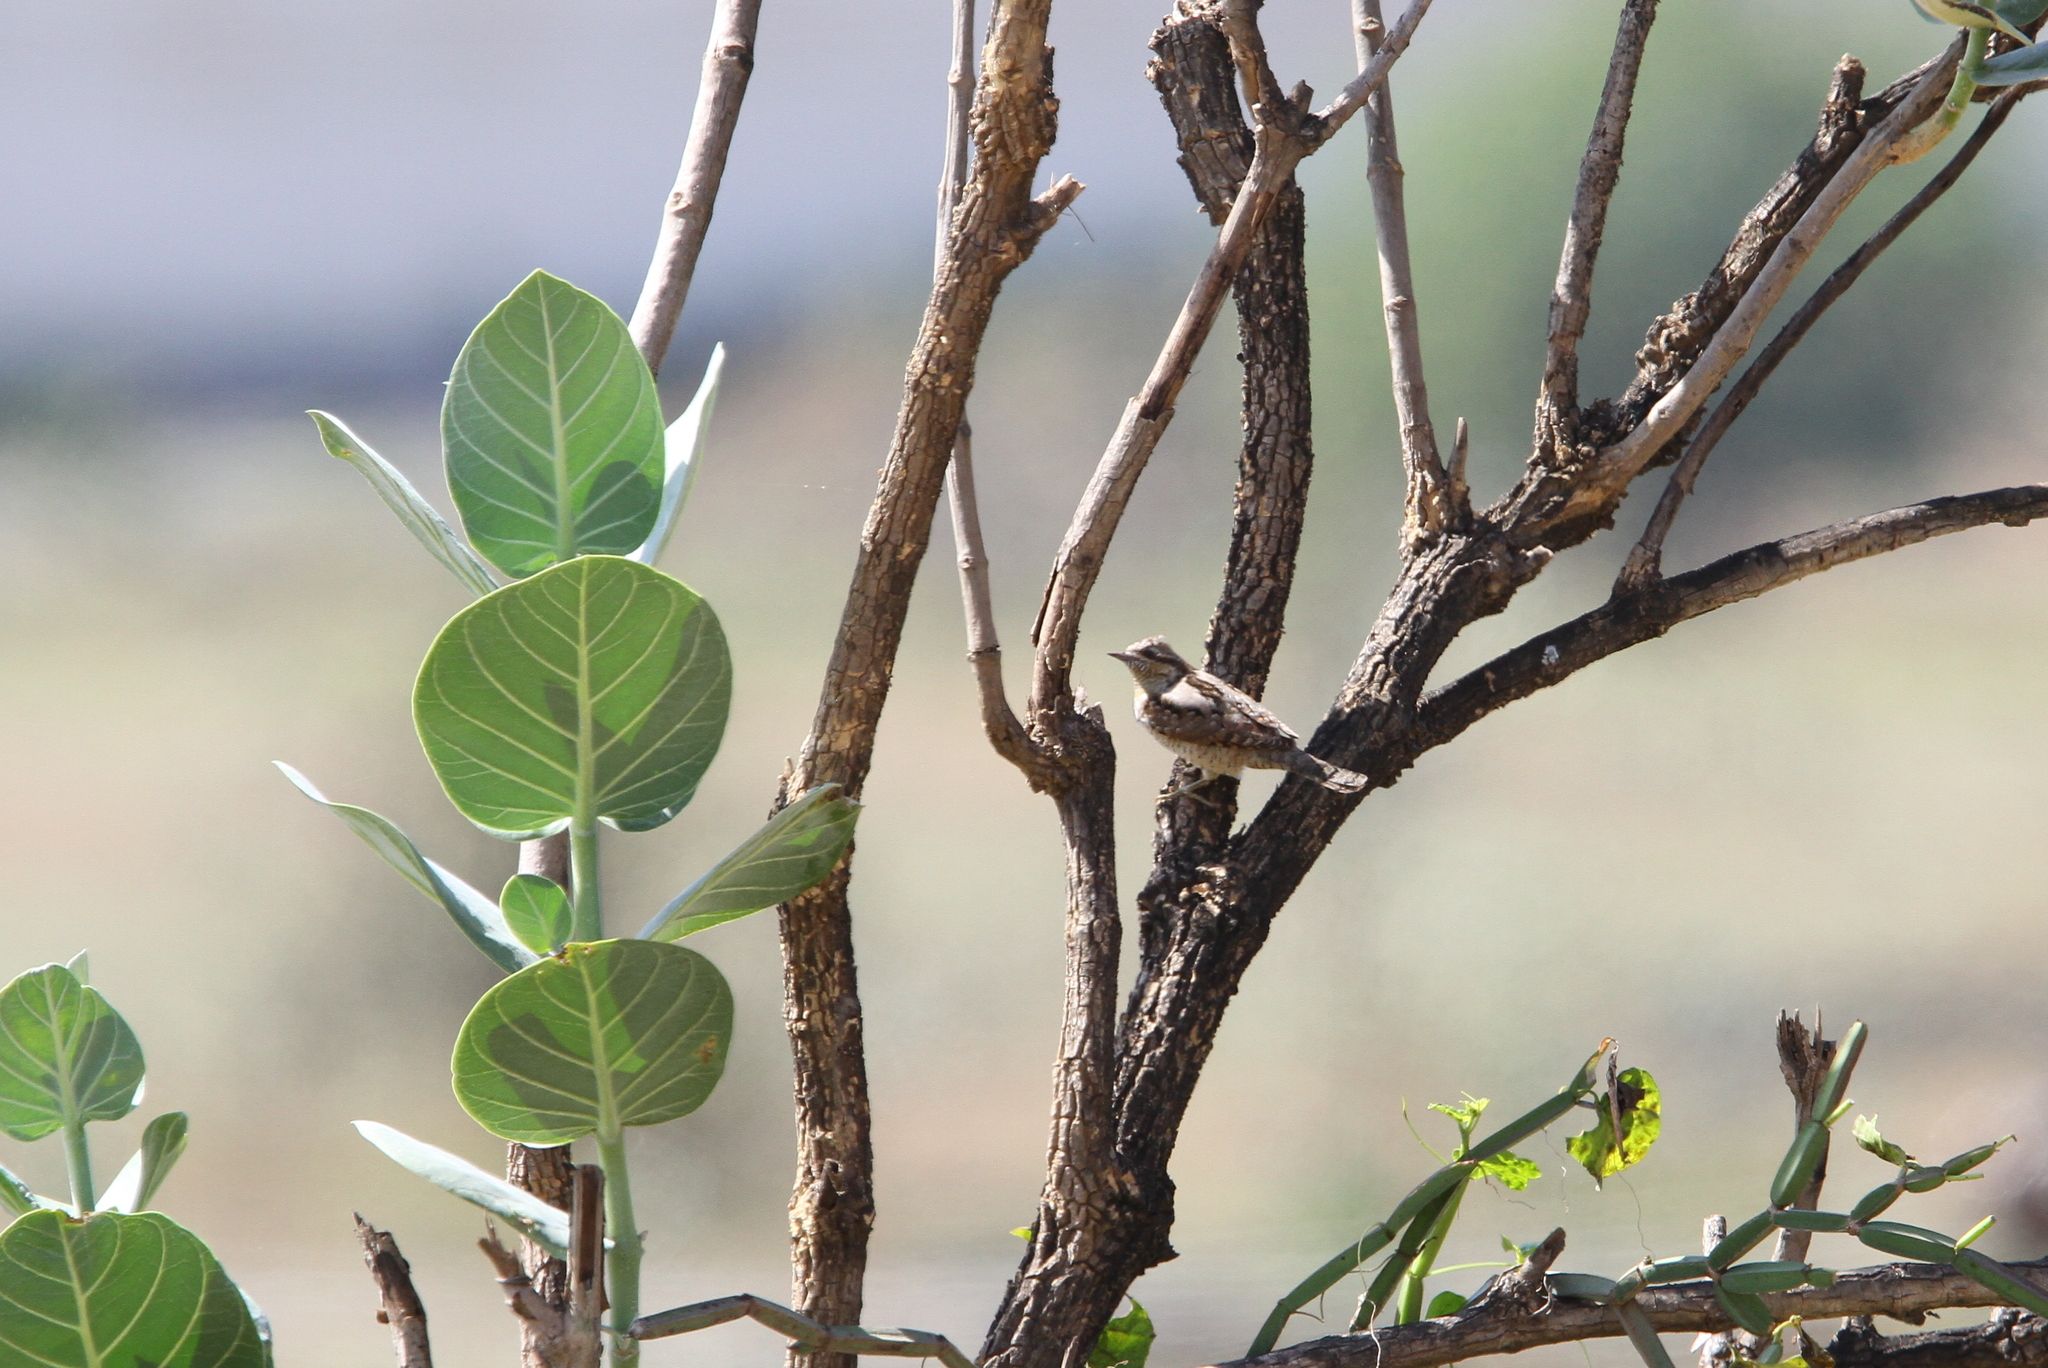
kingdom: Animalia
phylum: Chordata
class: Aves
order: Piciformes
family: Picidae
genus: Jynx
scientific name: Jynx torquilla
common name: Eurasian wryneck
